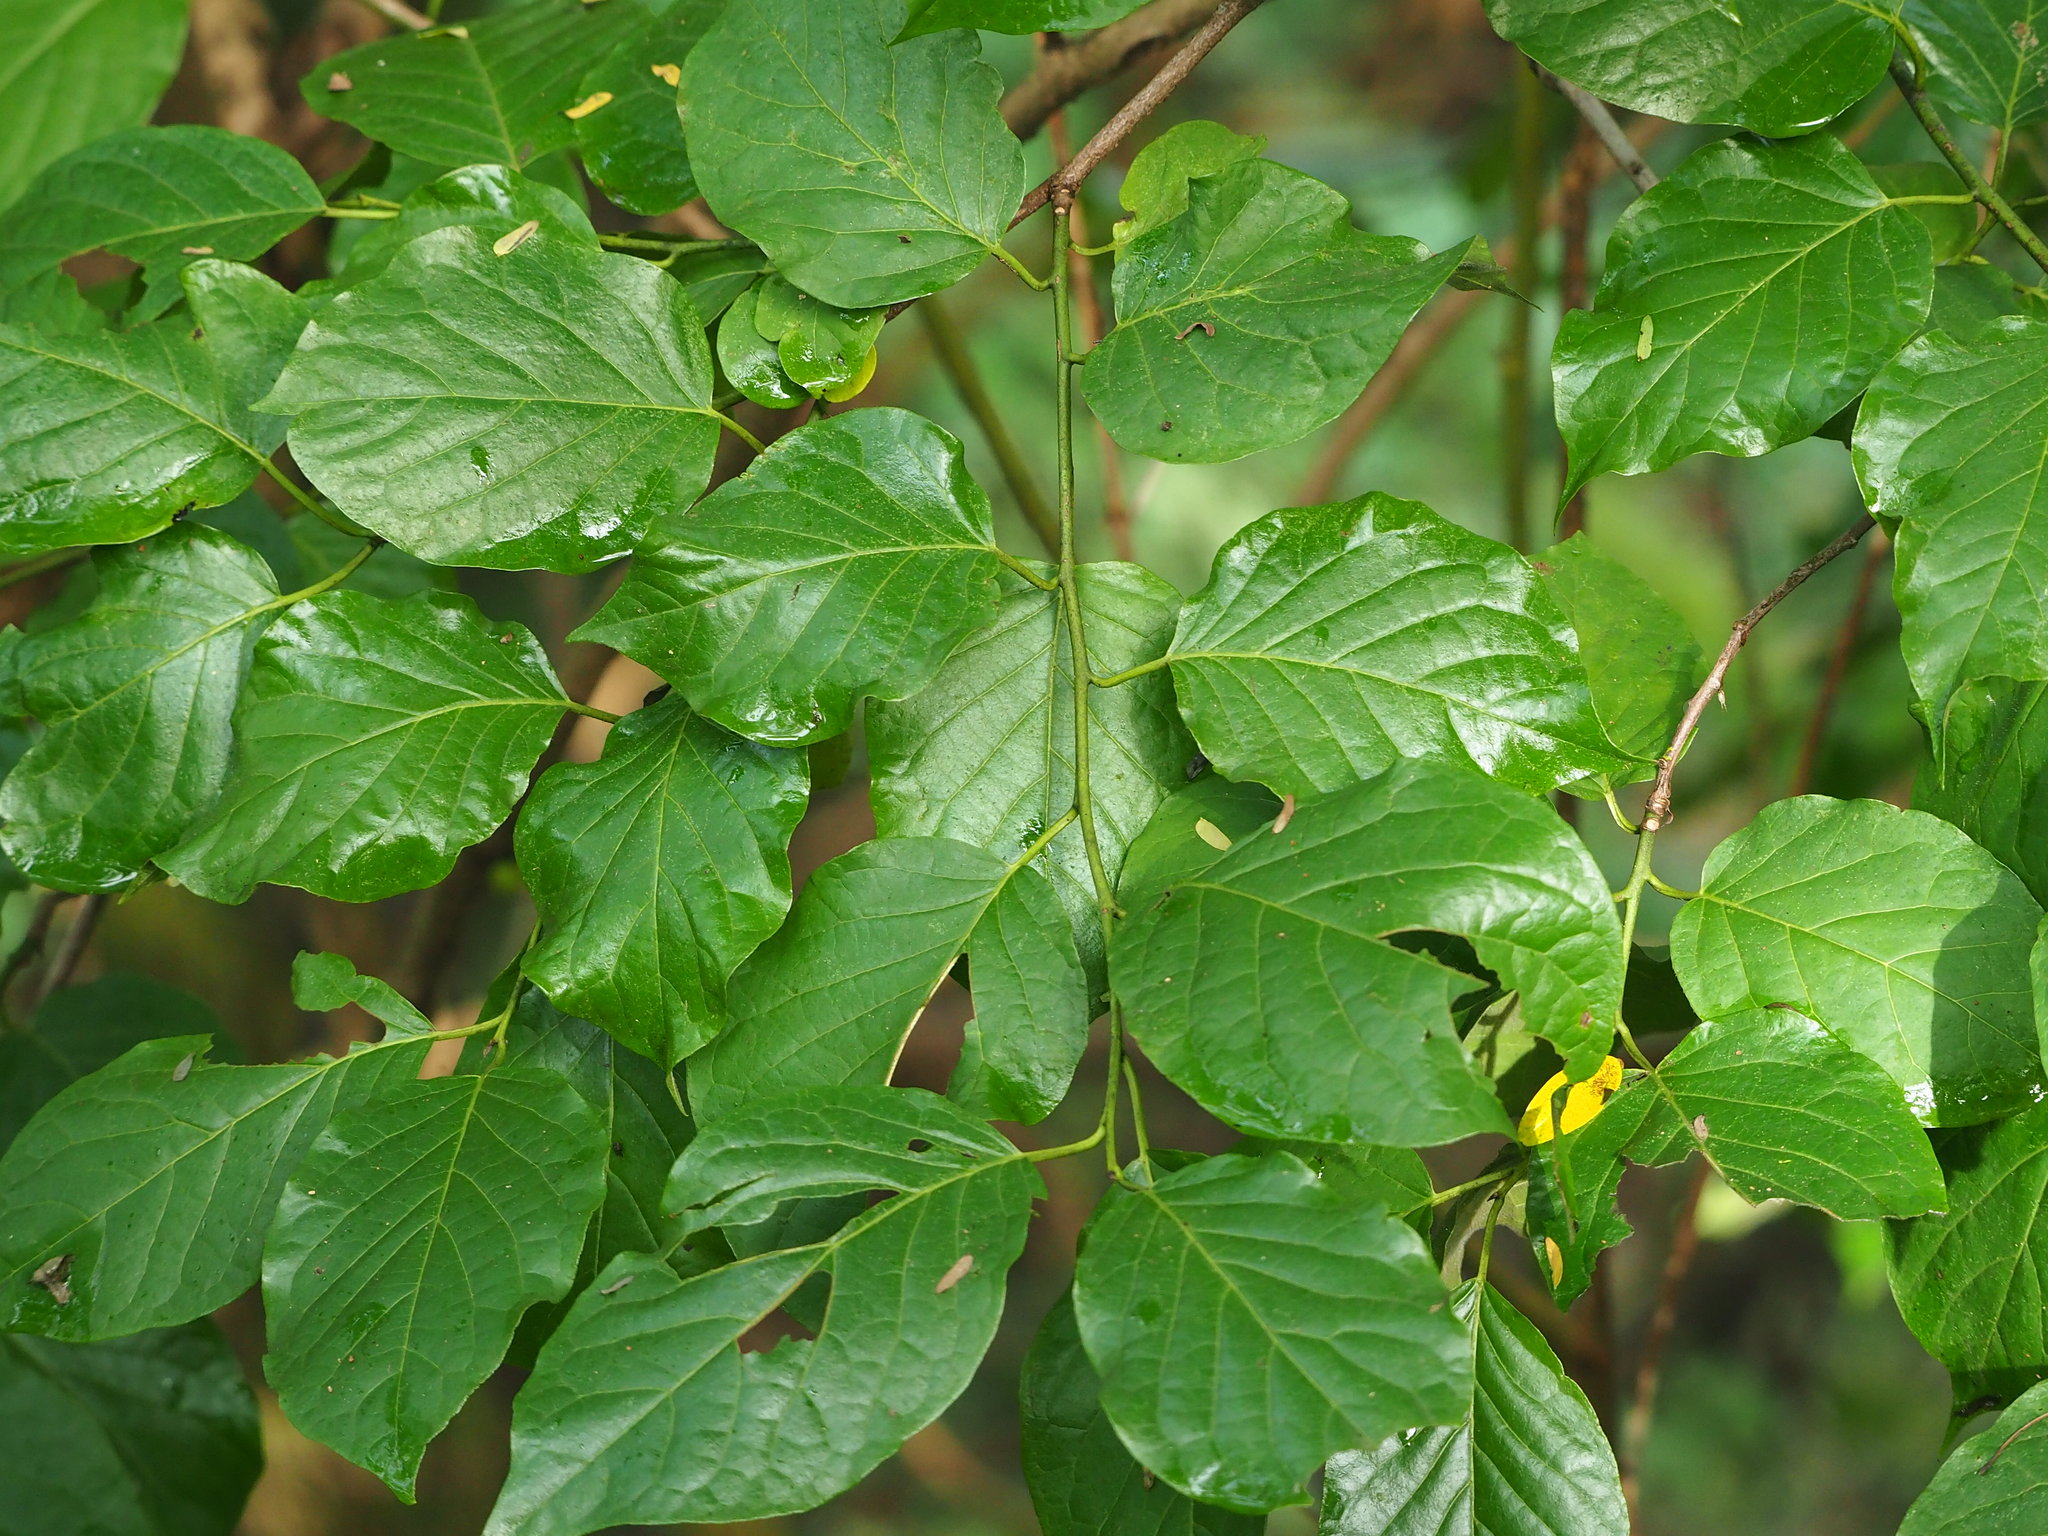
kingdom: Plantae
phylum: Tracheophyta
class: Magnoliopsida
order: Boraginales
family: Ehretiaceae
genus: Ehretia
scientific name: Ehretia resinosa
